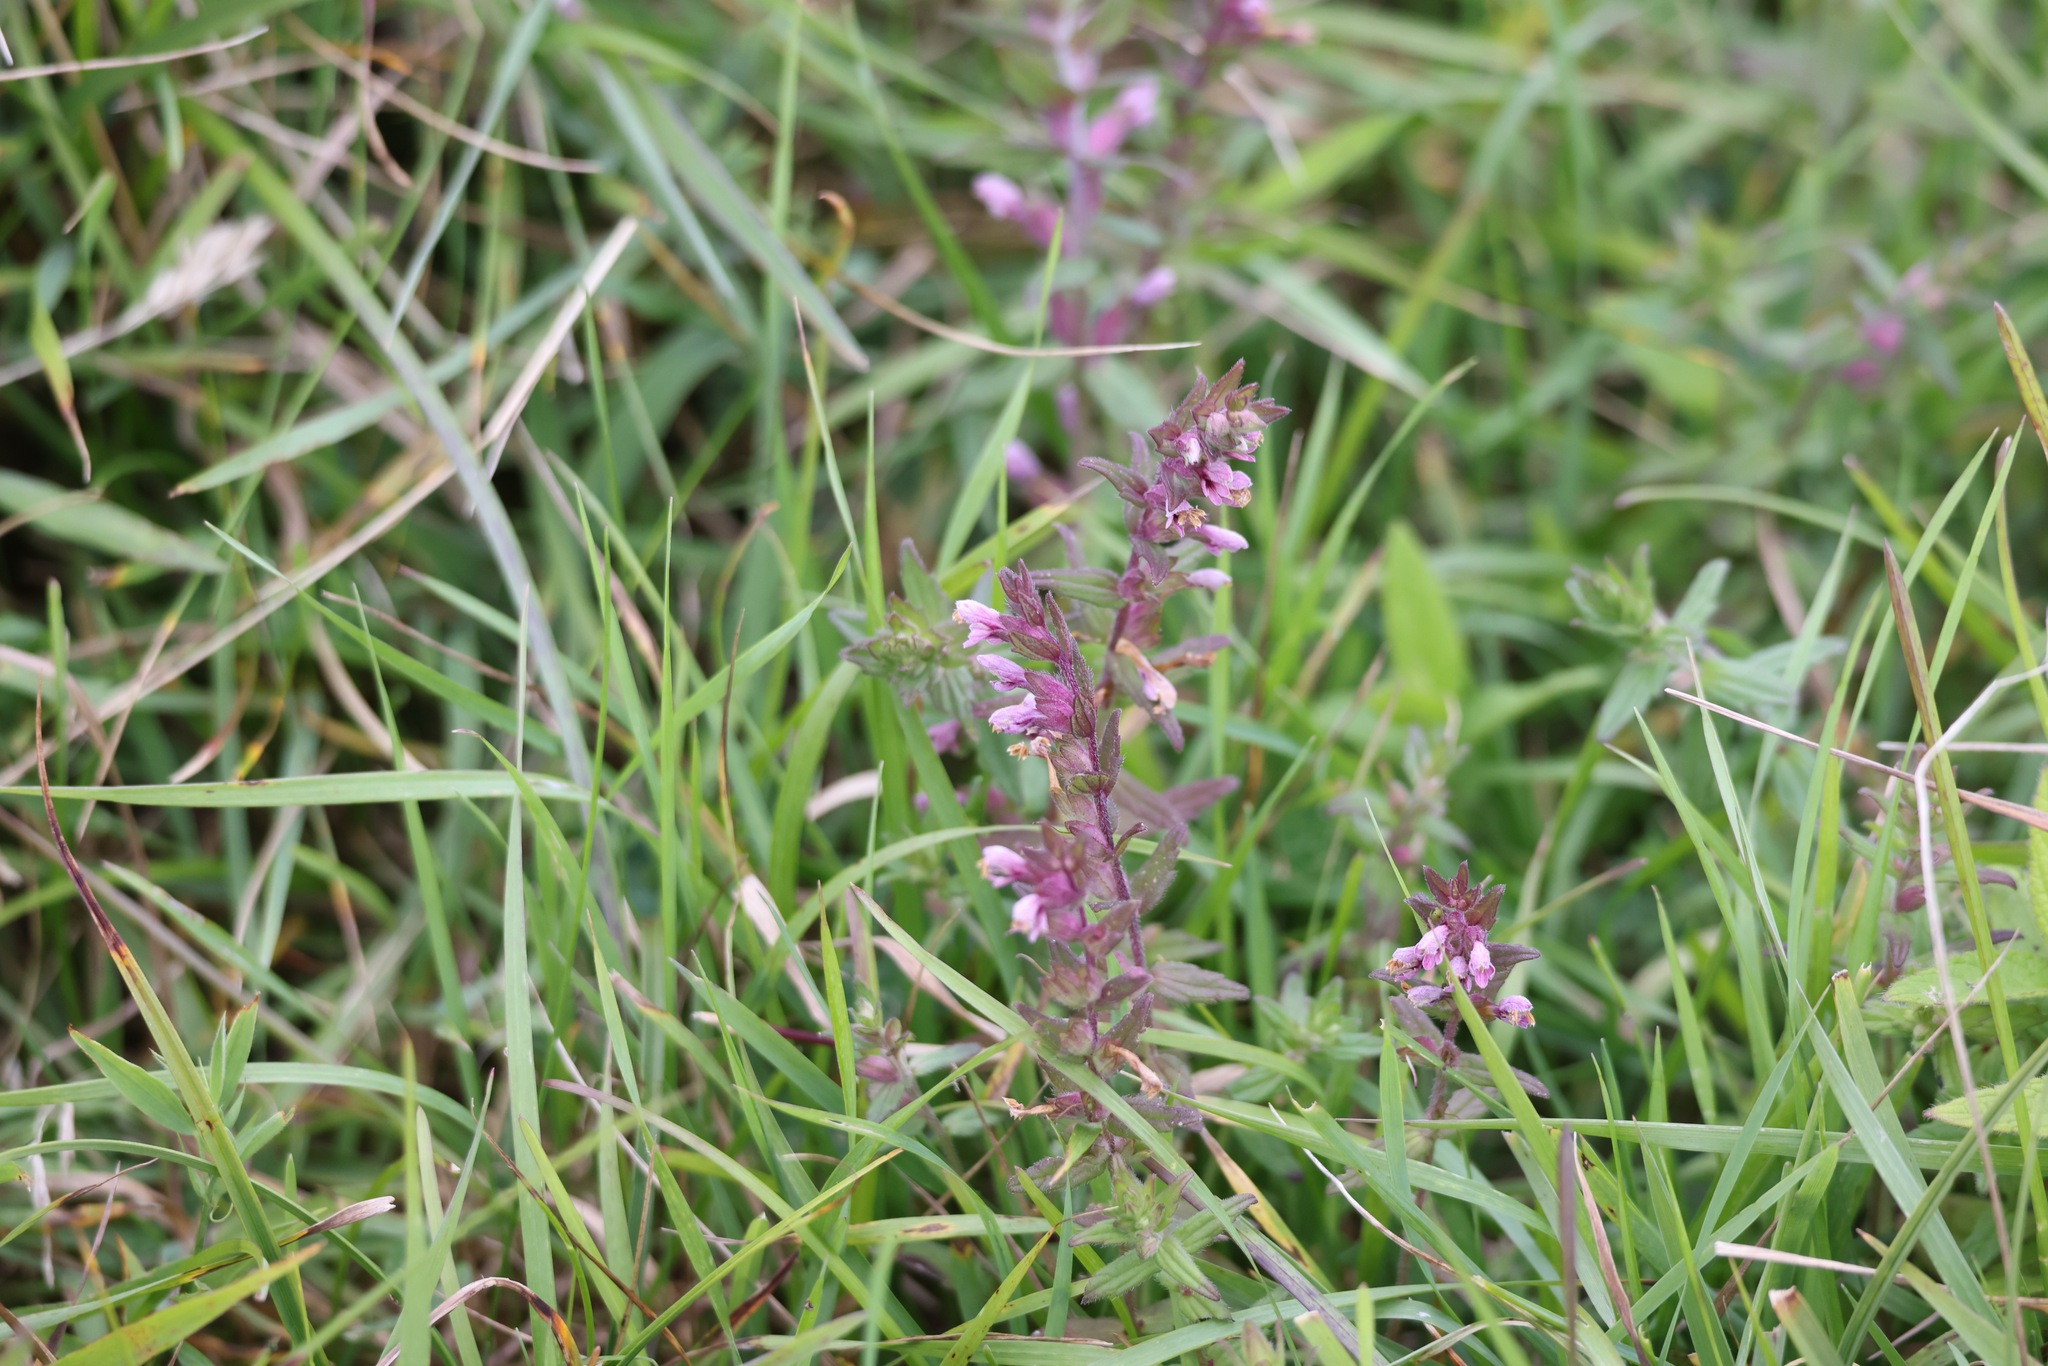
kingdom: Plantae
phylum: Tracheophyta
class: Magnoliopsida
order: Lamiales
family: Orobanchaceae
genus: Odontites
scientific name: Odontites vulgaris
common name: Broomrape
